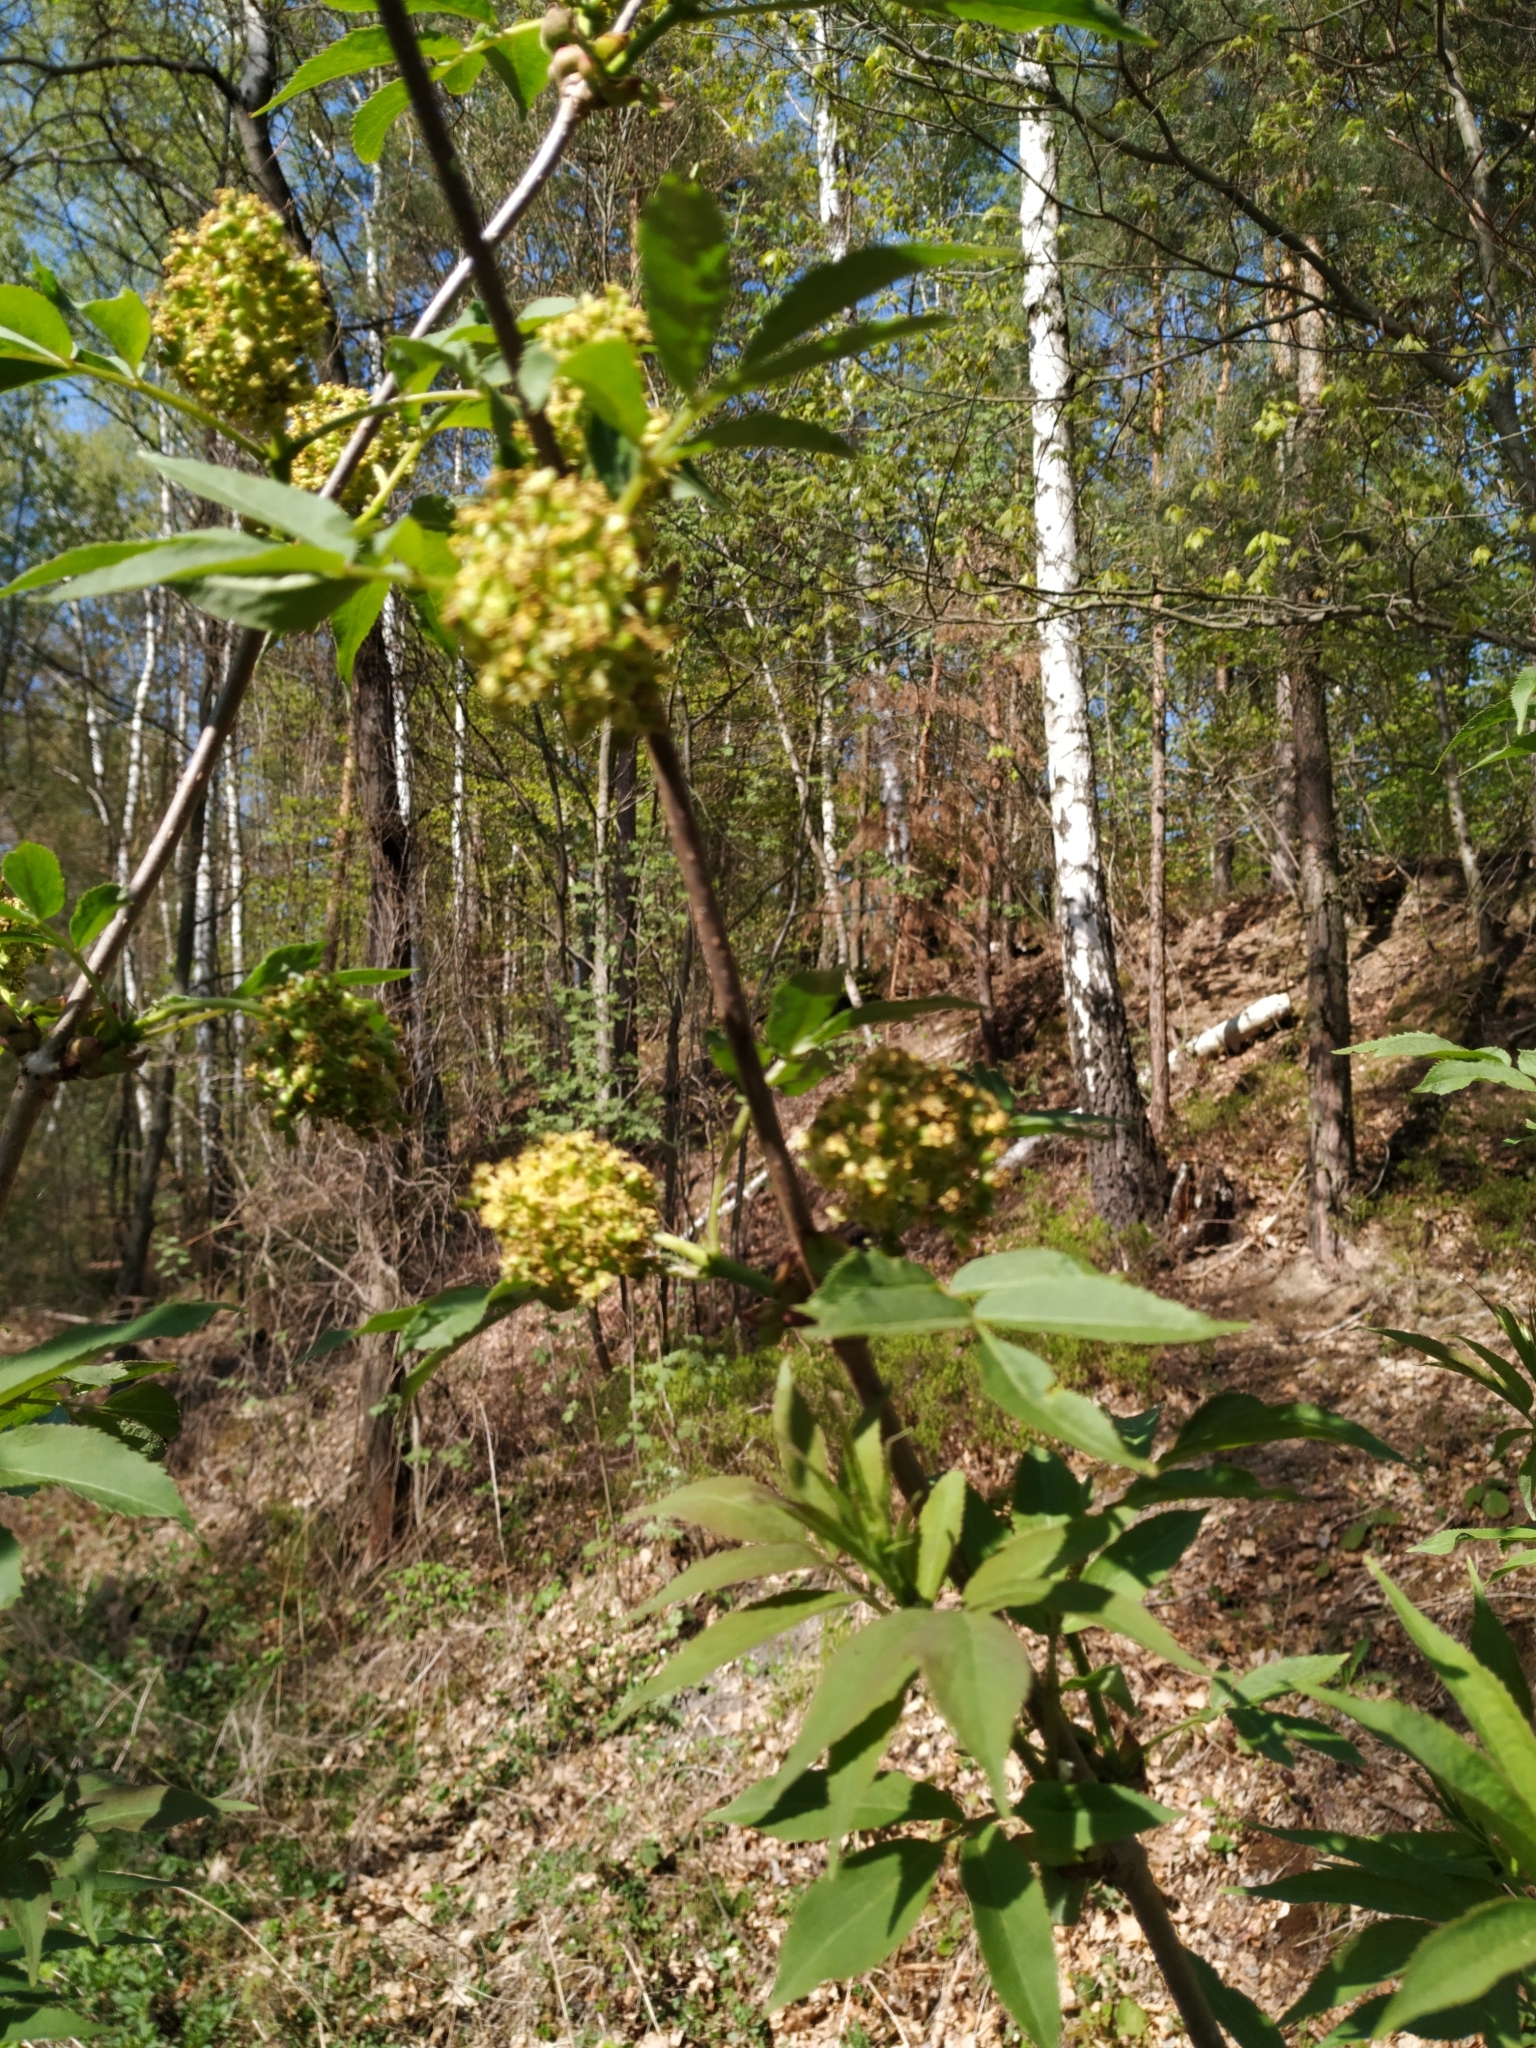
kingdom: Plantae
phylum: Tracheophyta
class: Magnoliopsida
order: Dipsacales
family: Viburnaceae
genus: Sambucus
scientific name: Sambucus racemosa
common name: Red-berried elder
